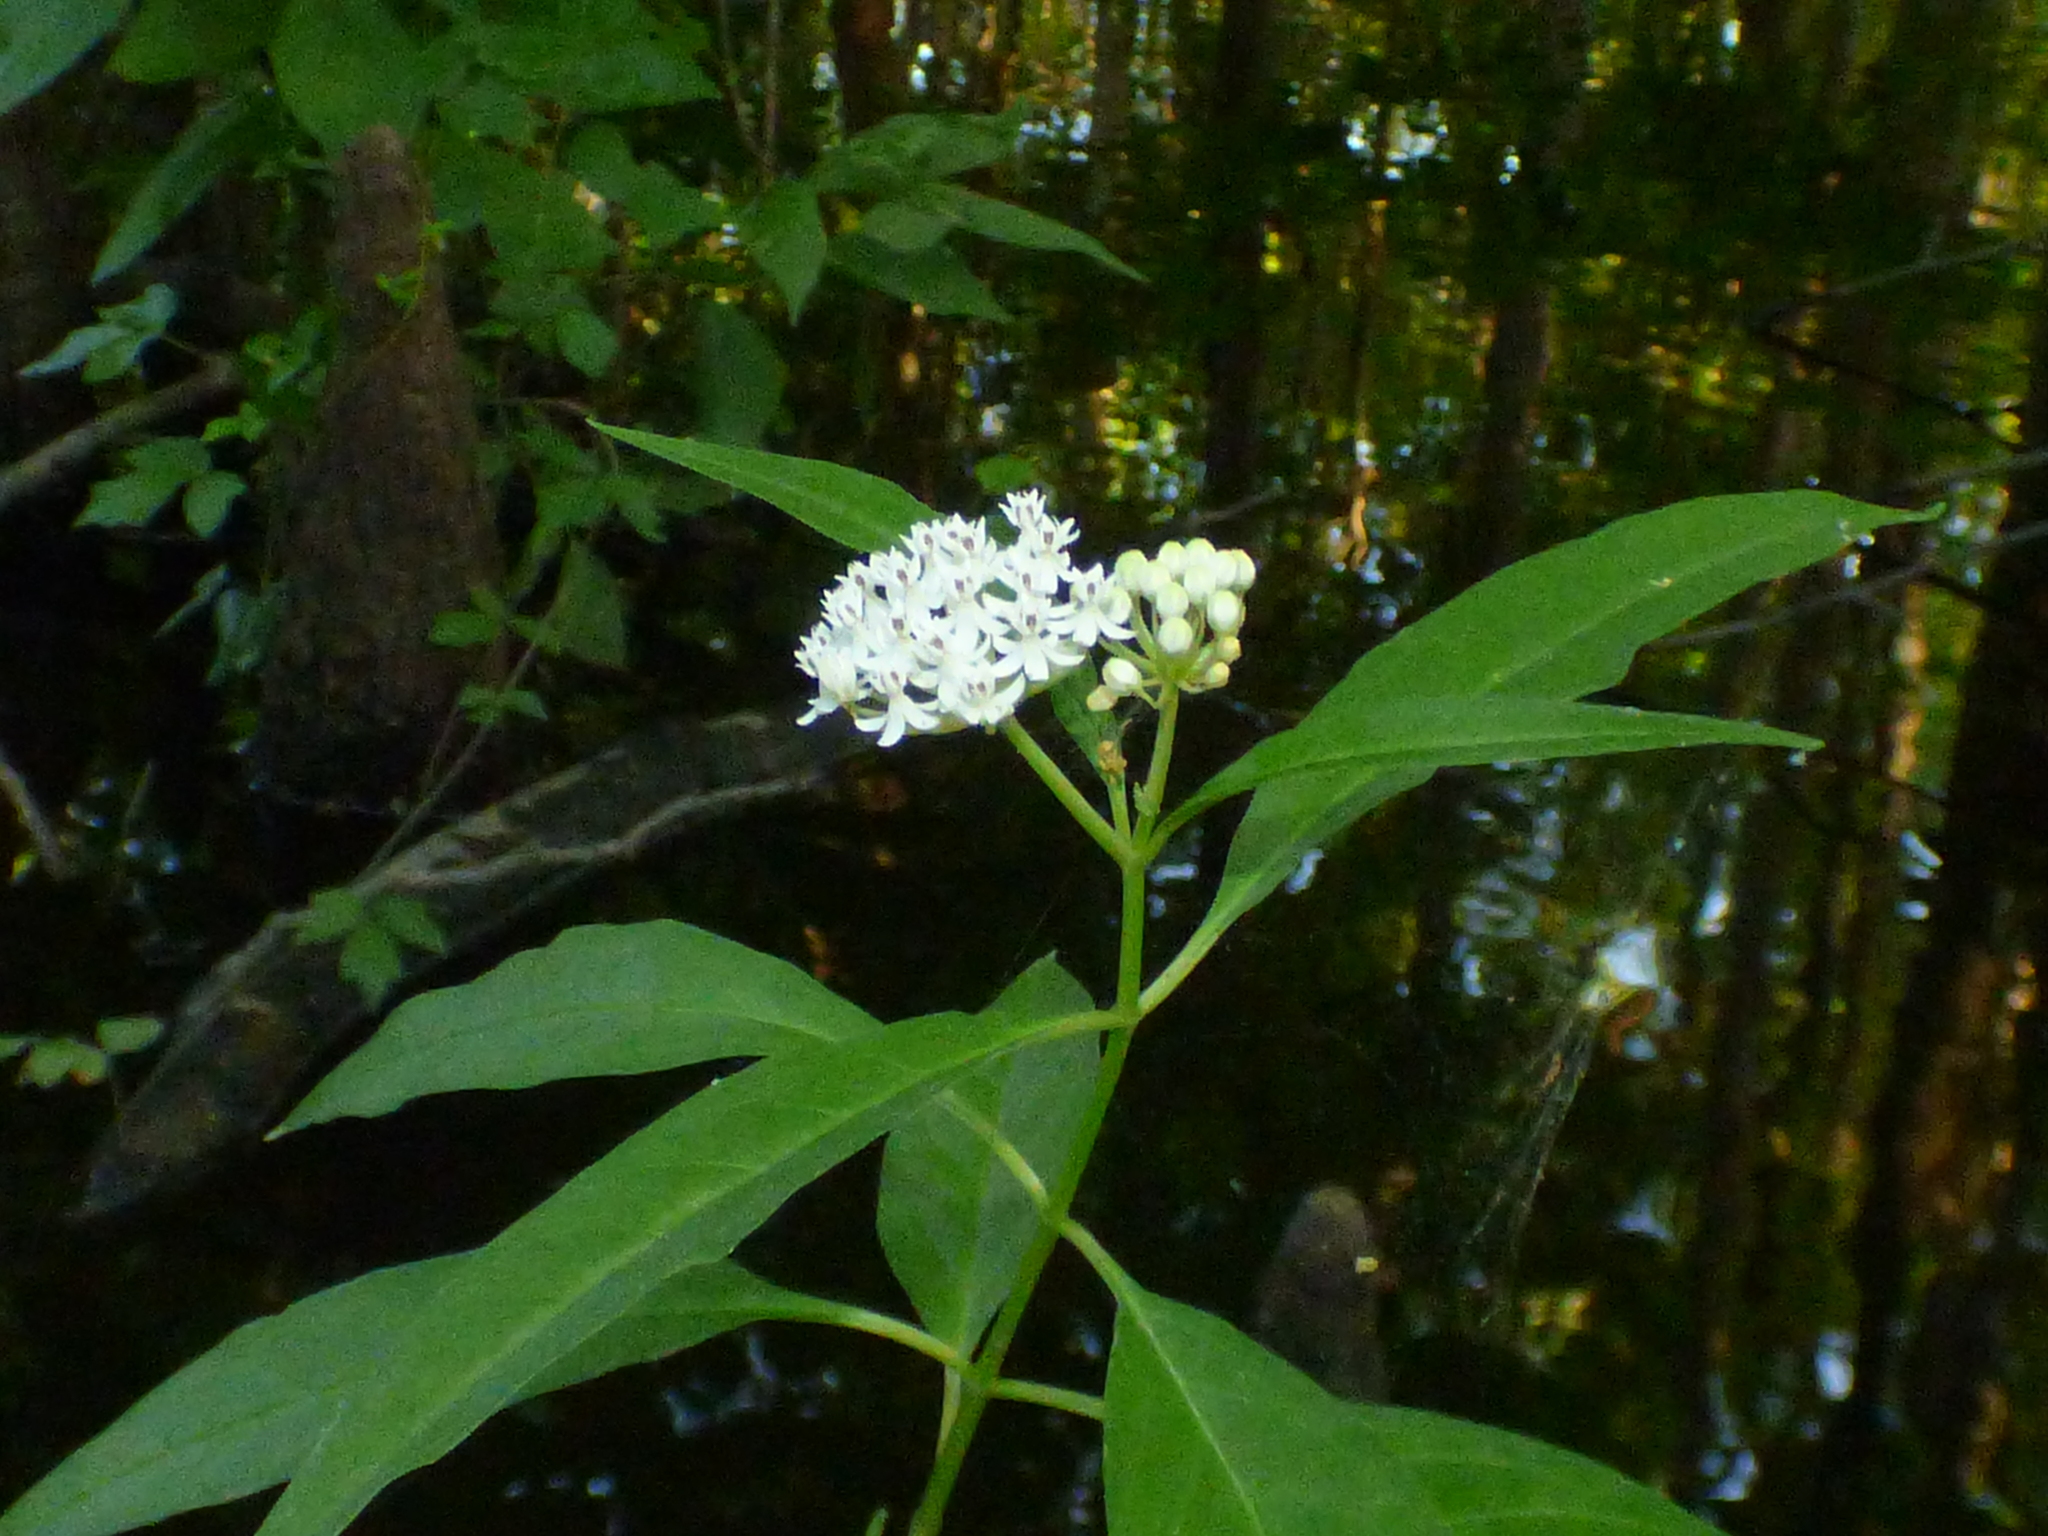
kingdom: Plantae
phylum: Tracheophyta
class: Magnoliopsida
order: Gentianales
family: Apocynaceae
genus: Asclepias
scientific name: Asclepias perennis
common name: Smooth-seed milkweed
